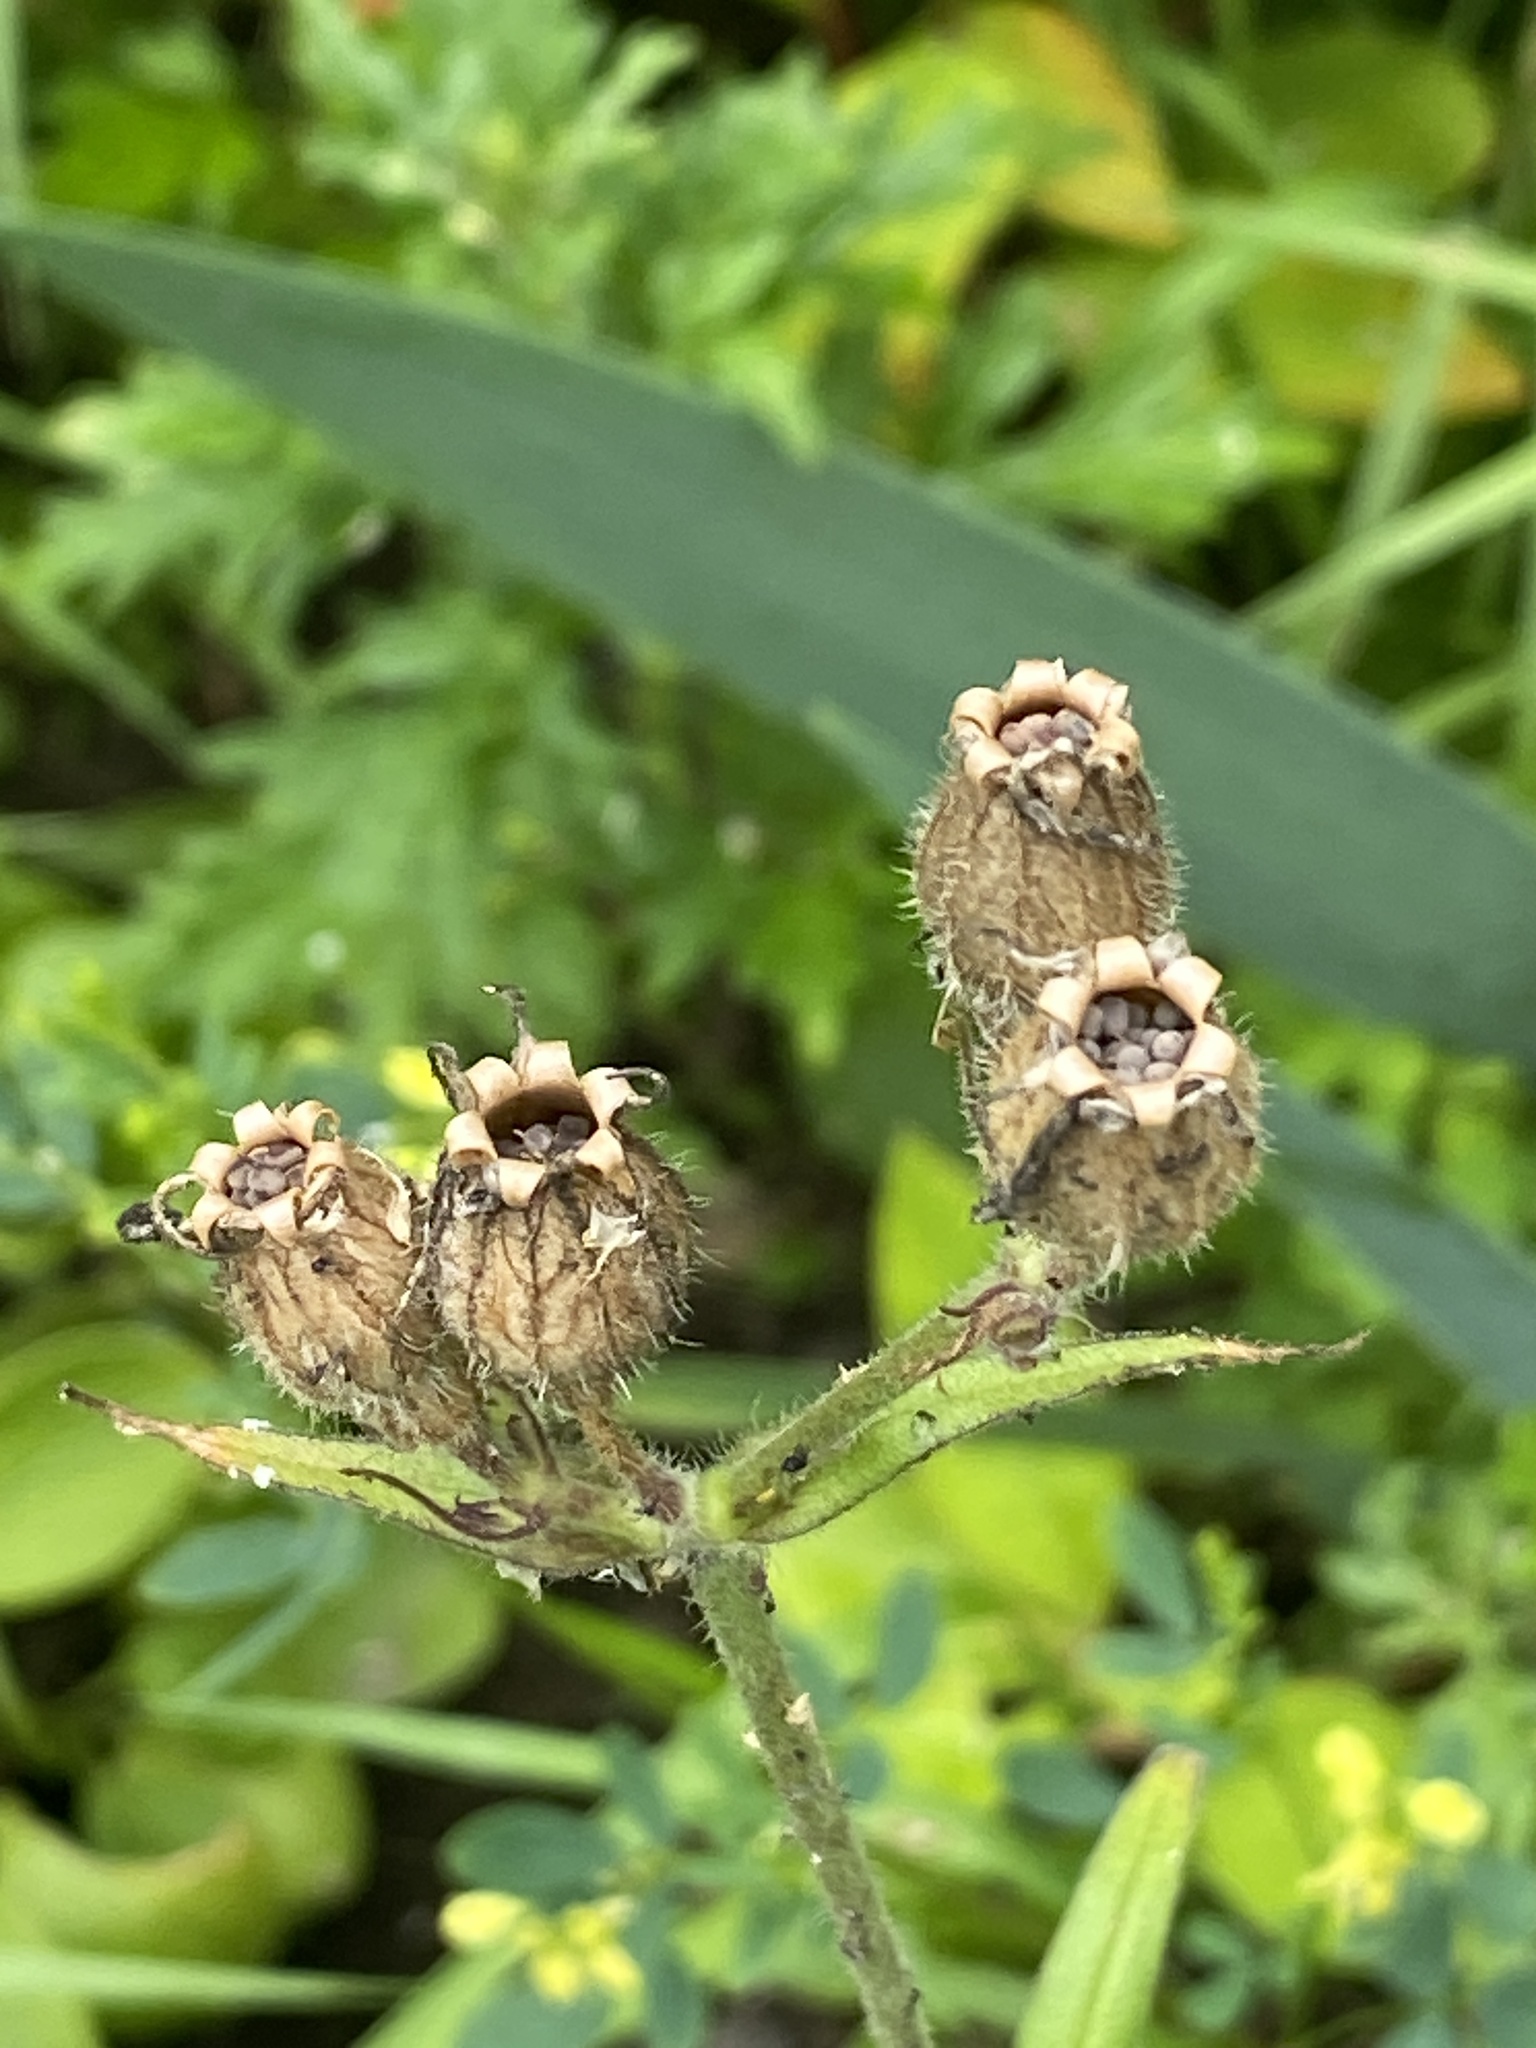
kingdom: Plantae
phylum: Tracheophyta
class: Magnoliopsida
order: Caryophyllales
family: Caryophyllaceae
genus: Silene
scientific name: Silene latifolia
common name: White campion
